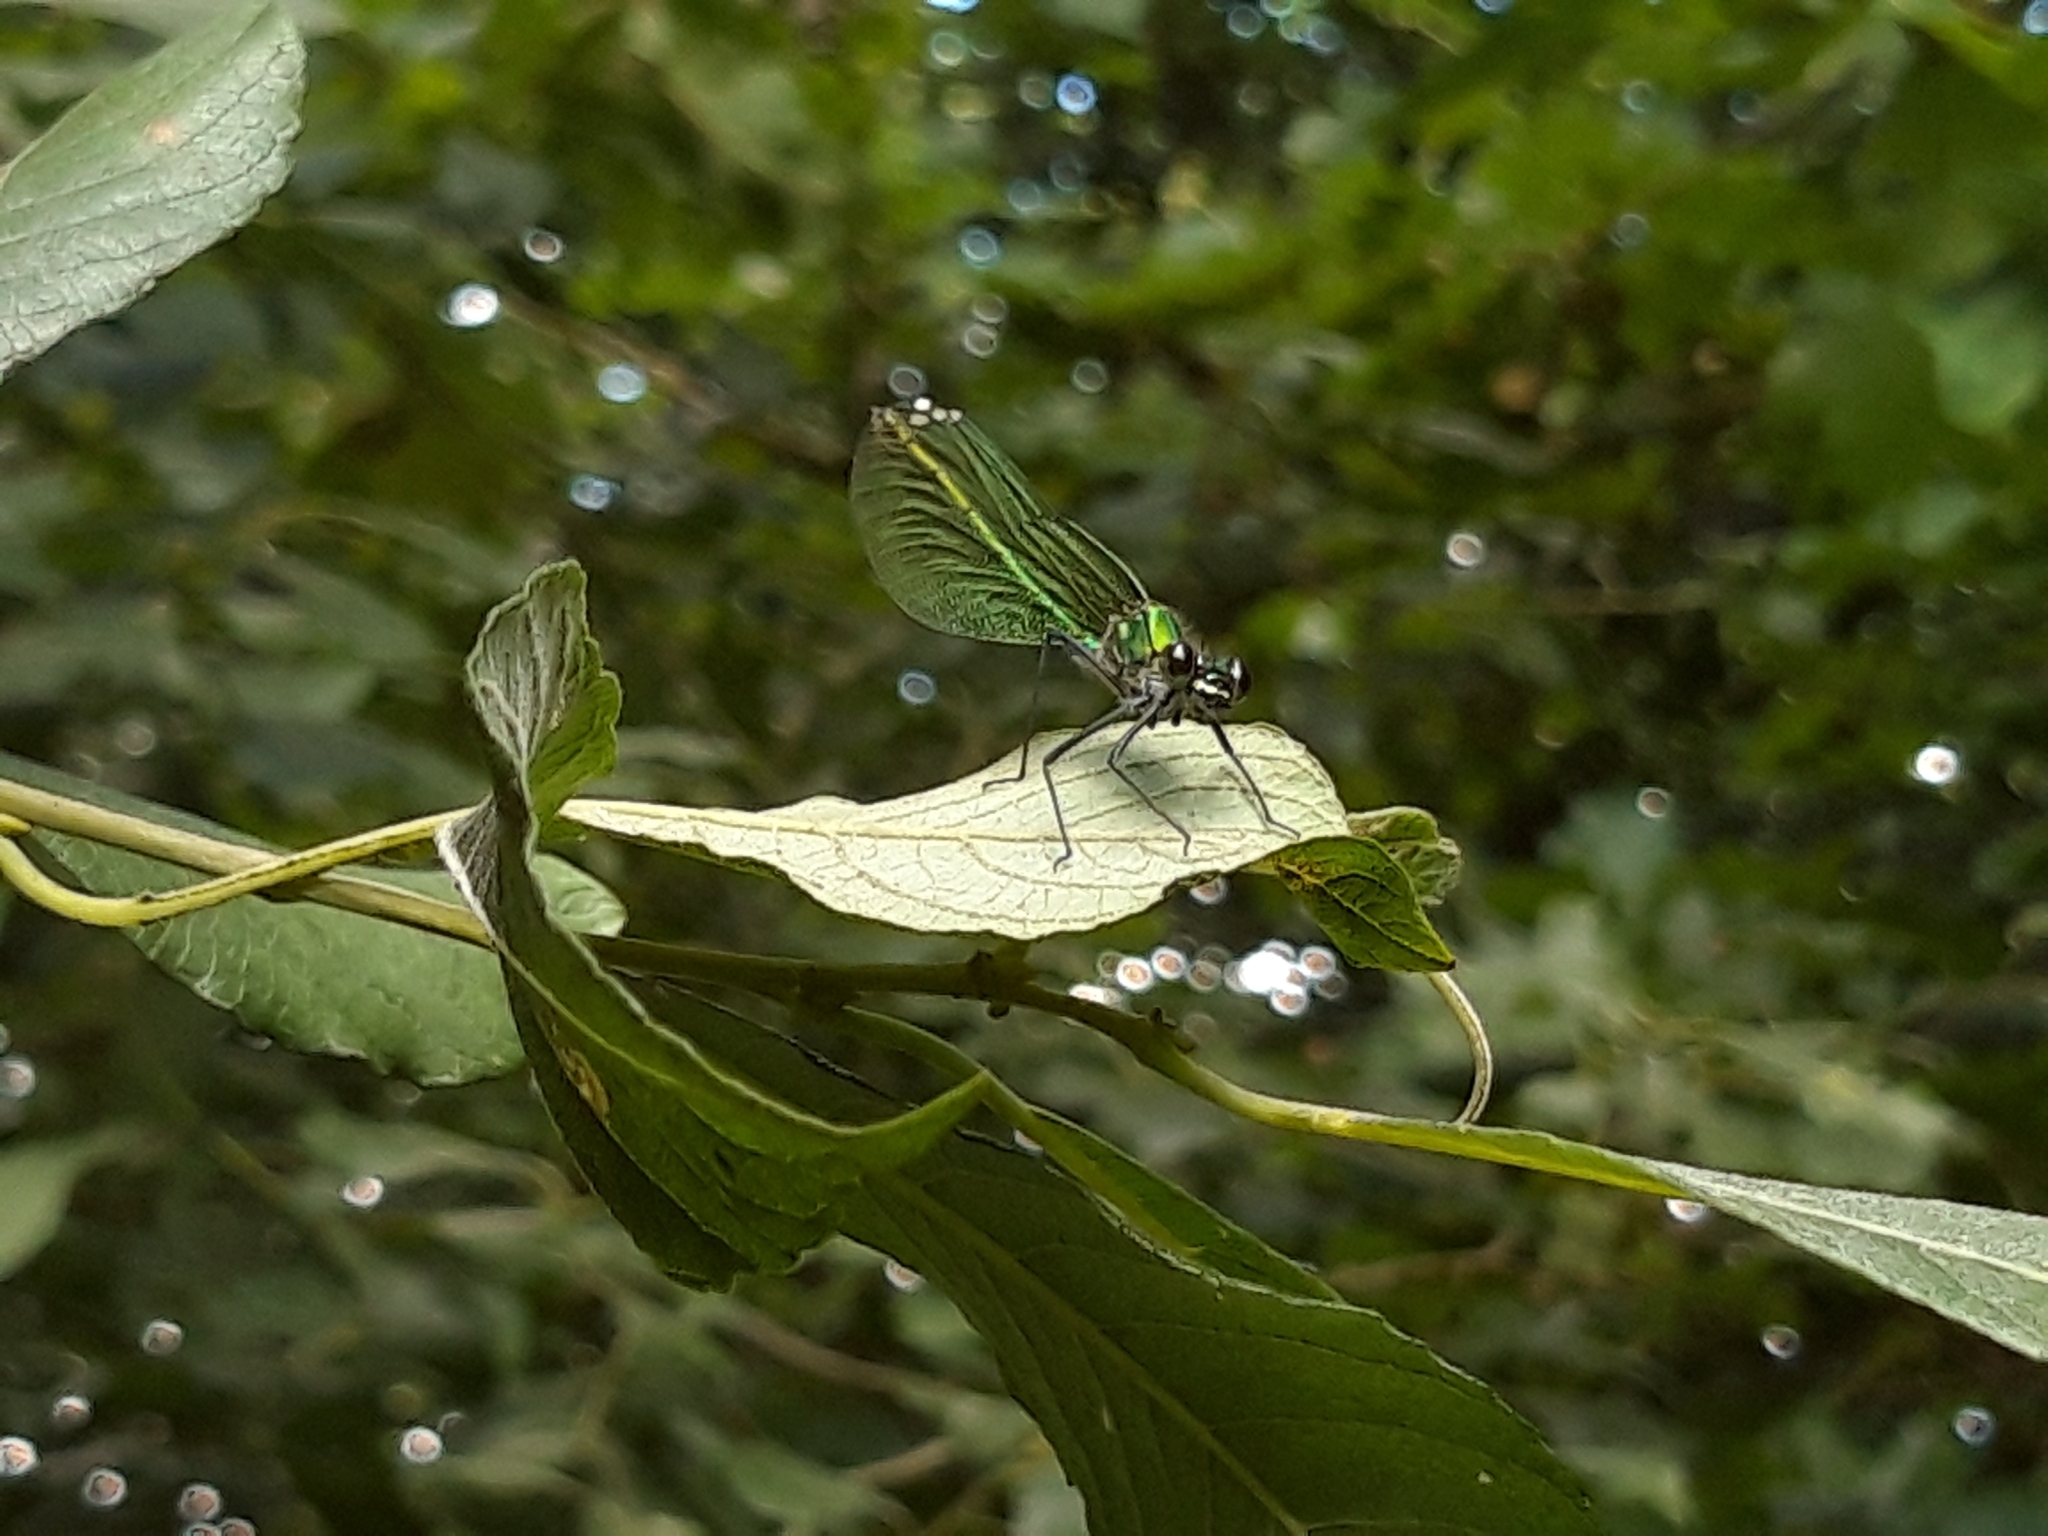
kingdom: Animalia
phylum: Arthropoda
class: Insecta
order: Odonata
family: Calopterygidae
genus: Calopteryx
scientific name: Calopteryx splendens
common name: Banded demoiselle
